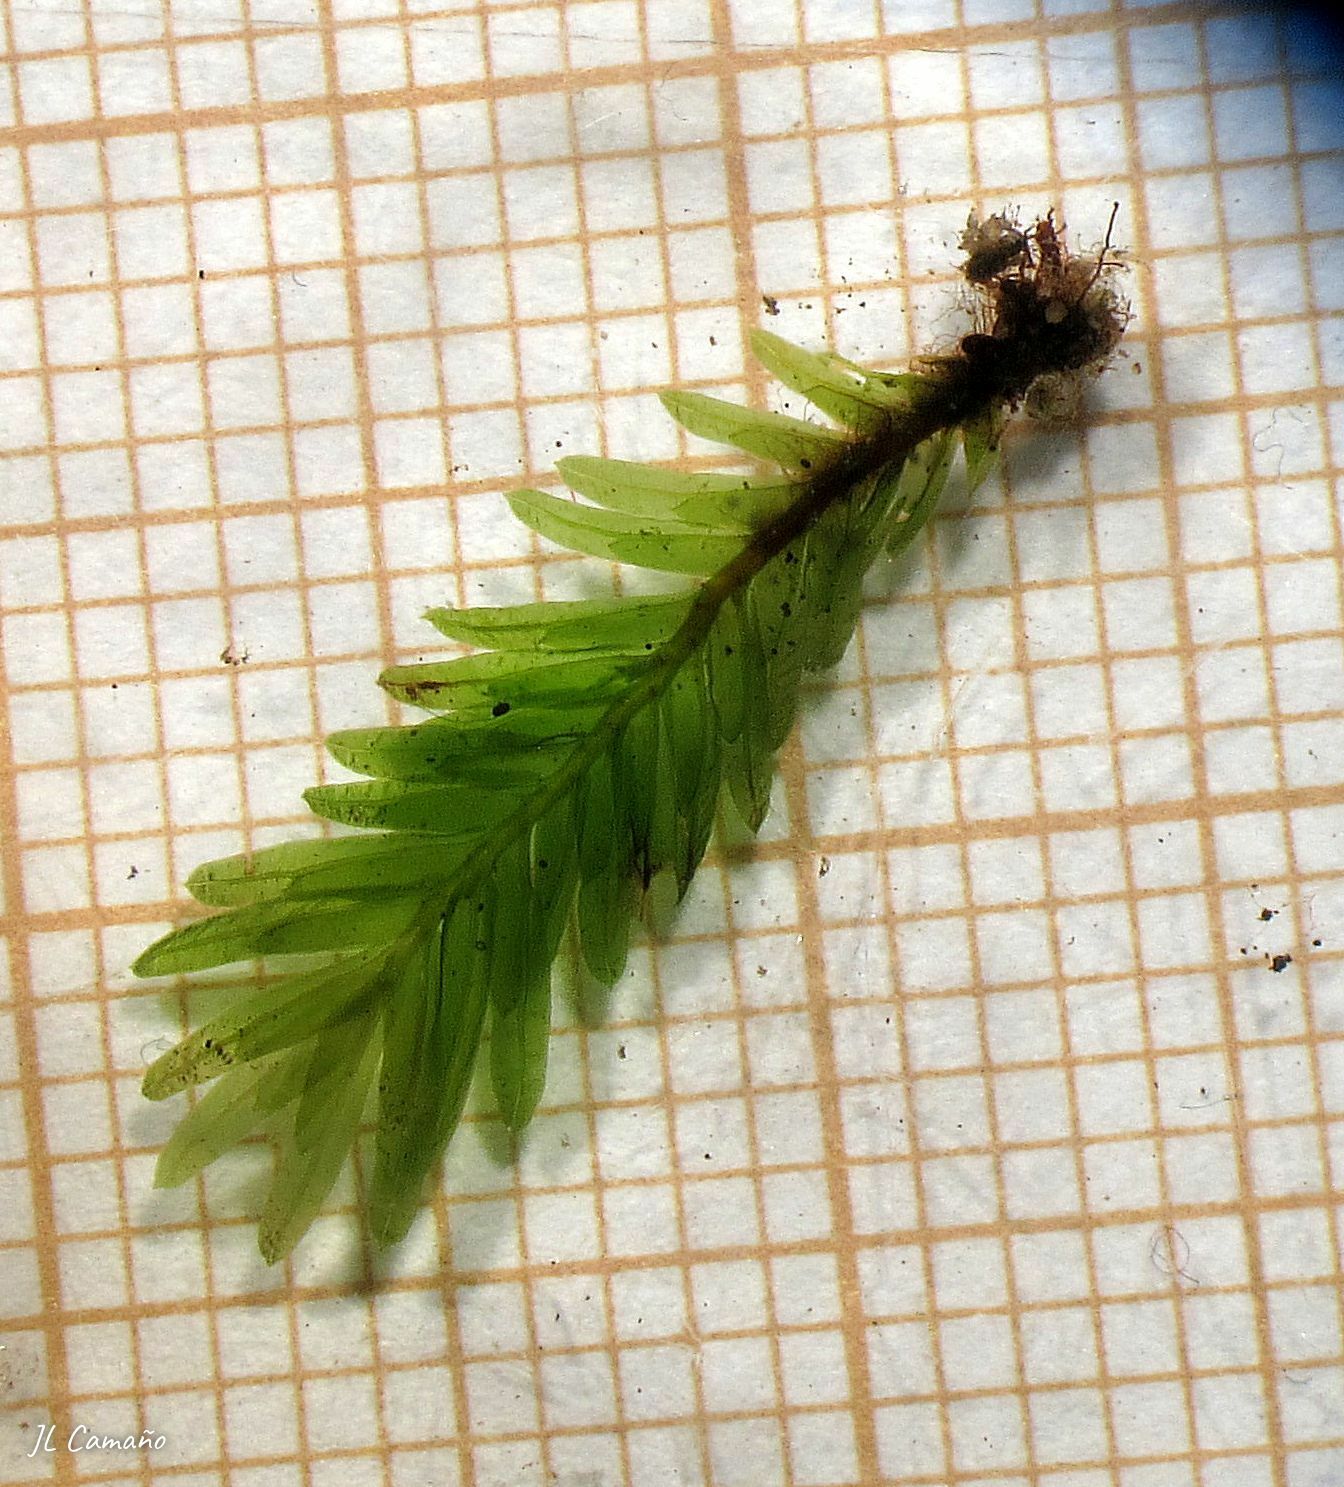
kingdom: Plantae
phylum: Bryophyta
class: Bryopsida
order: Dicranales
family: Fissidentaceae
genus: Fissidens
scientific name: Fissidens dubius
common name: Rock pocket moss
